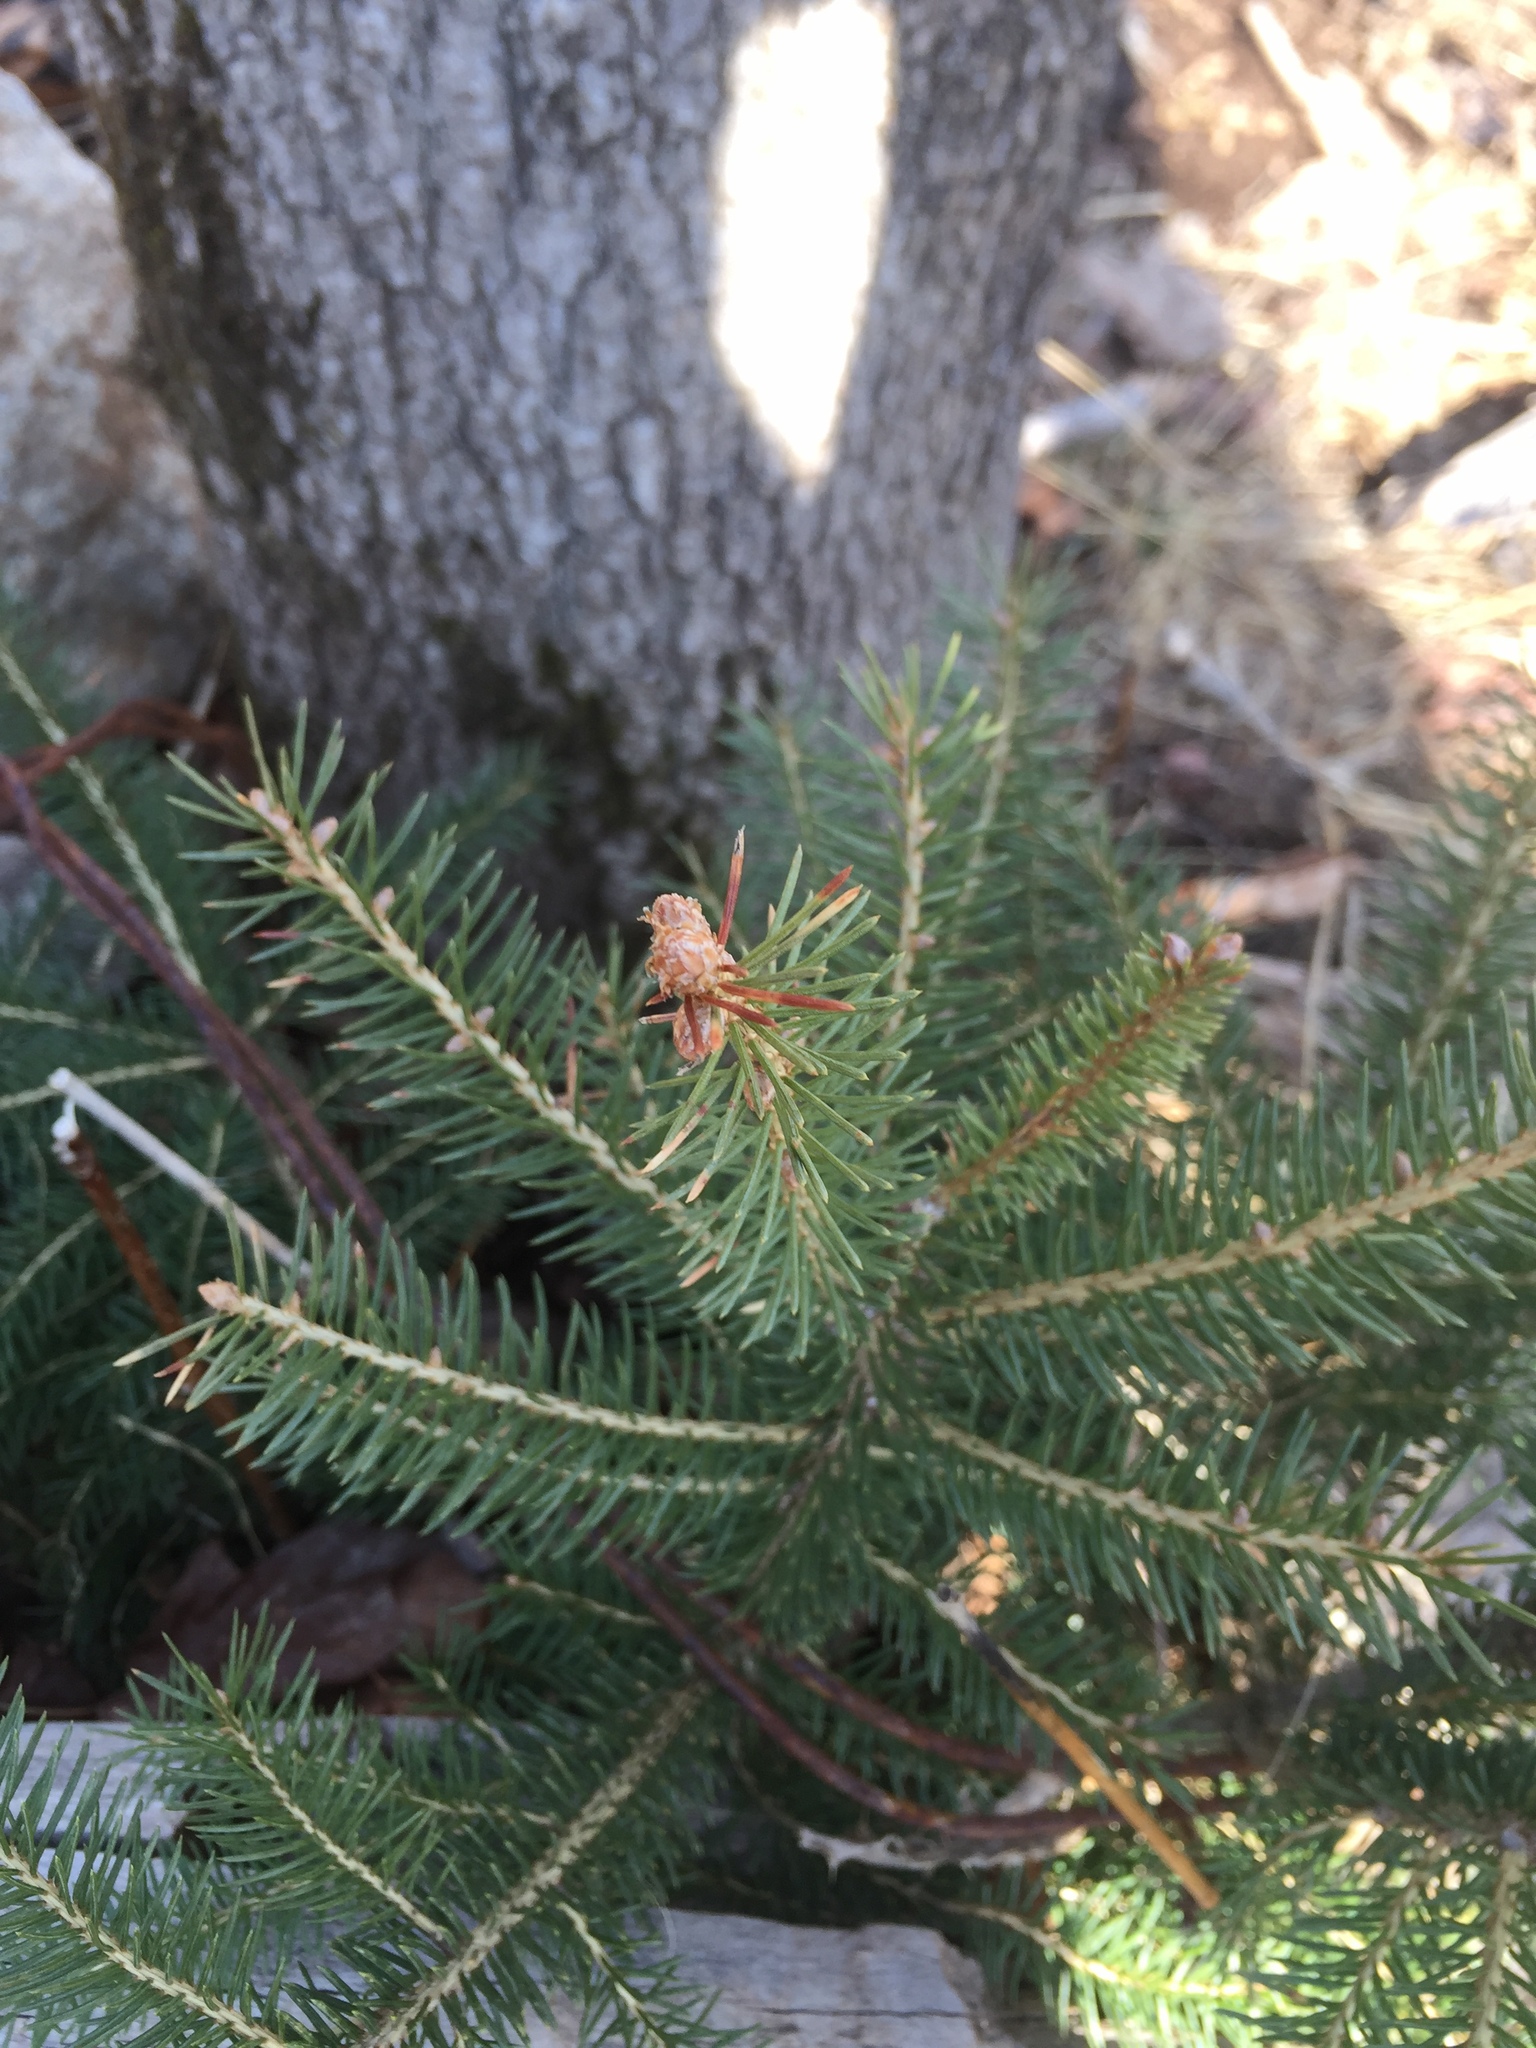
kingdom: Plantae
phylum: Tracheophyta
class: Pinopsida
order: Pinales
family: Pinaceae
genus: Picea
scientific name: Picea glauca
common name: White spruce
